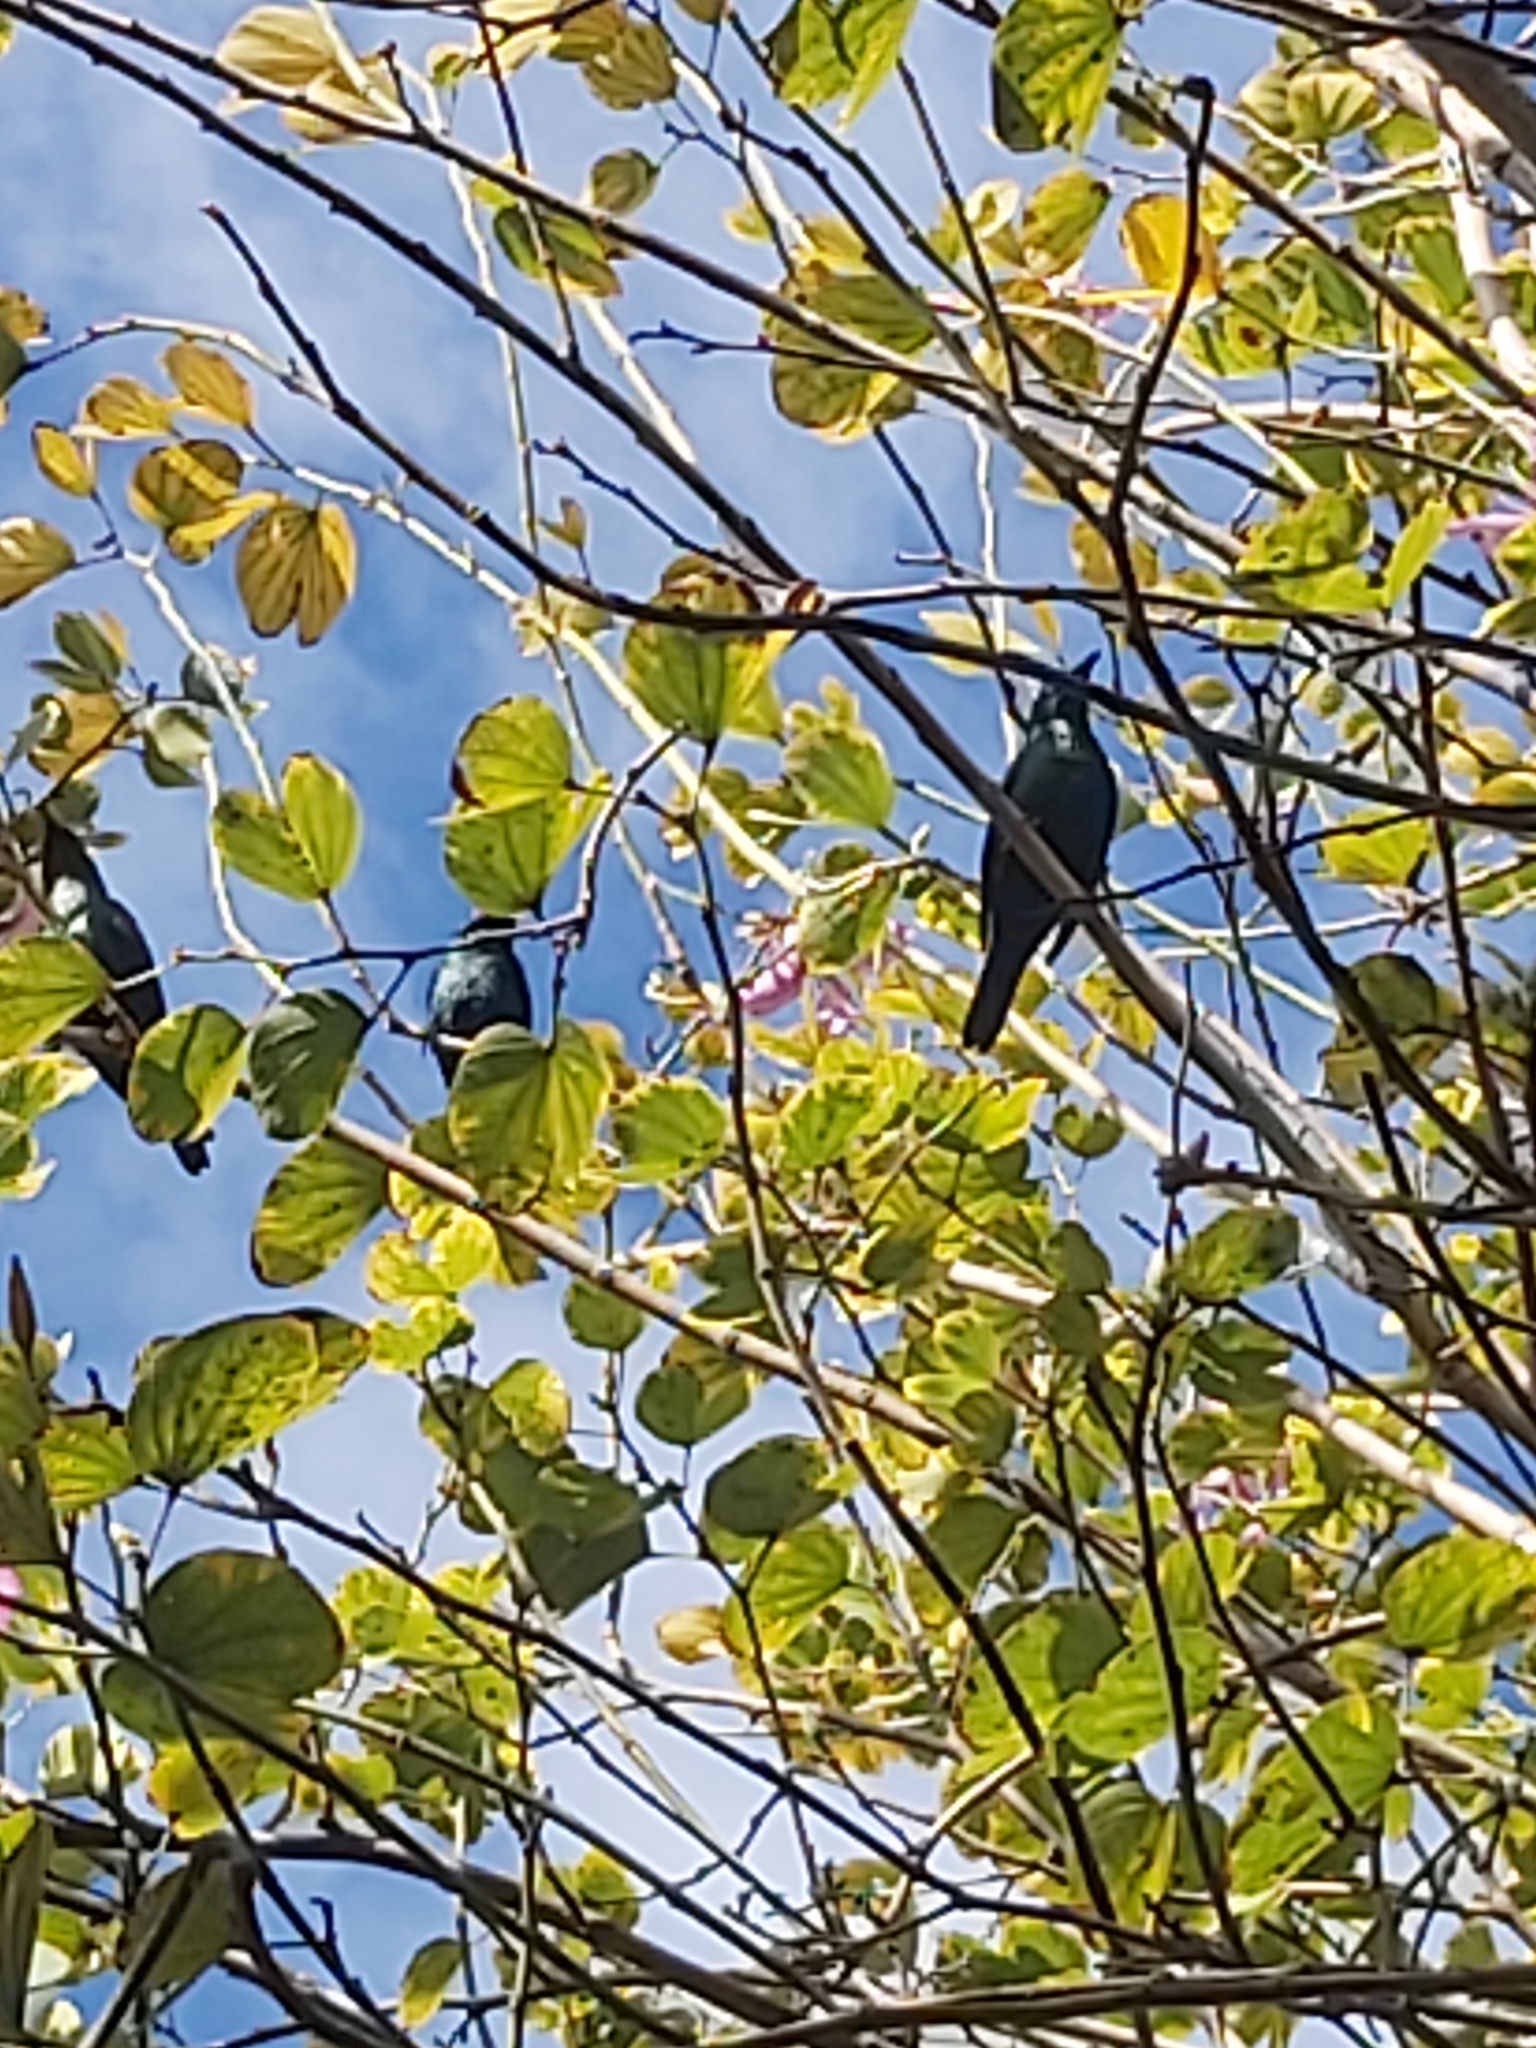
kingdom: Animalia
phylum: Chordata
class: Aves
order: Passeriformes
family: Sturnidae
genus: Aplonis
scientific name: Aplonis panayensis
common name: Asian glossy starling
